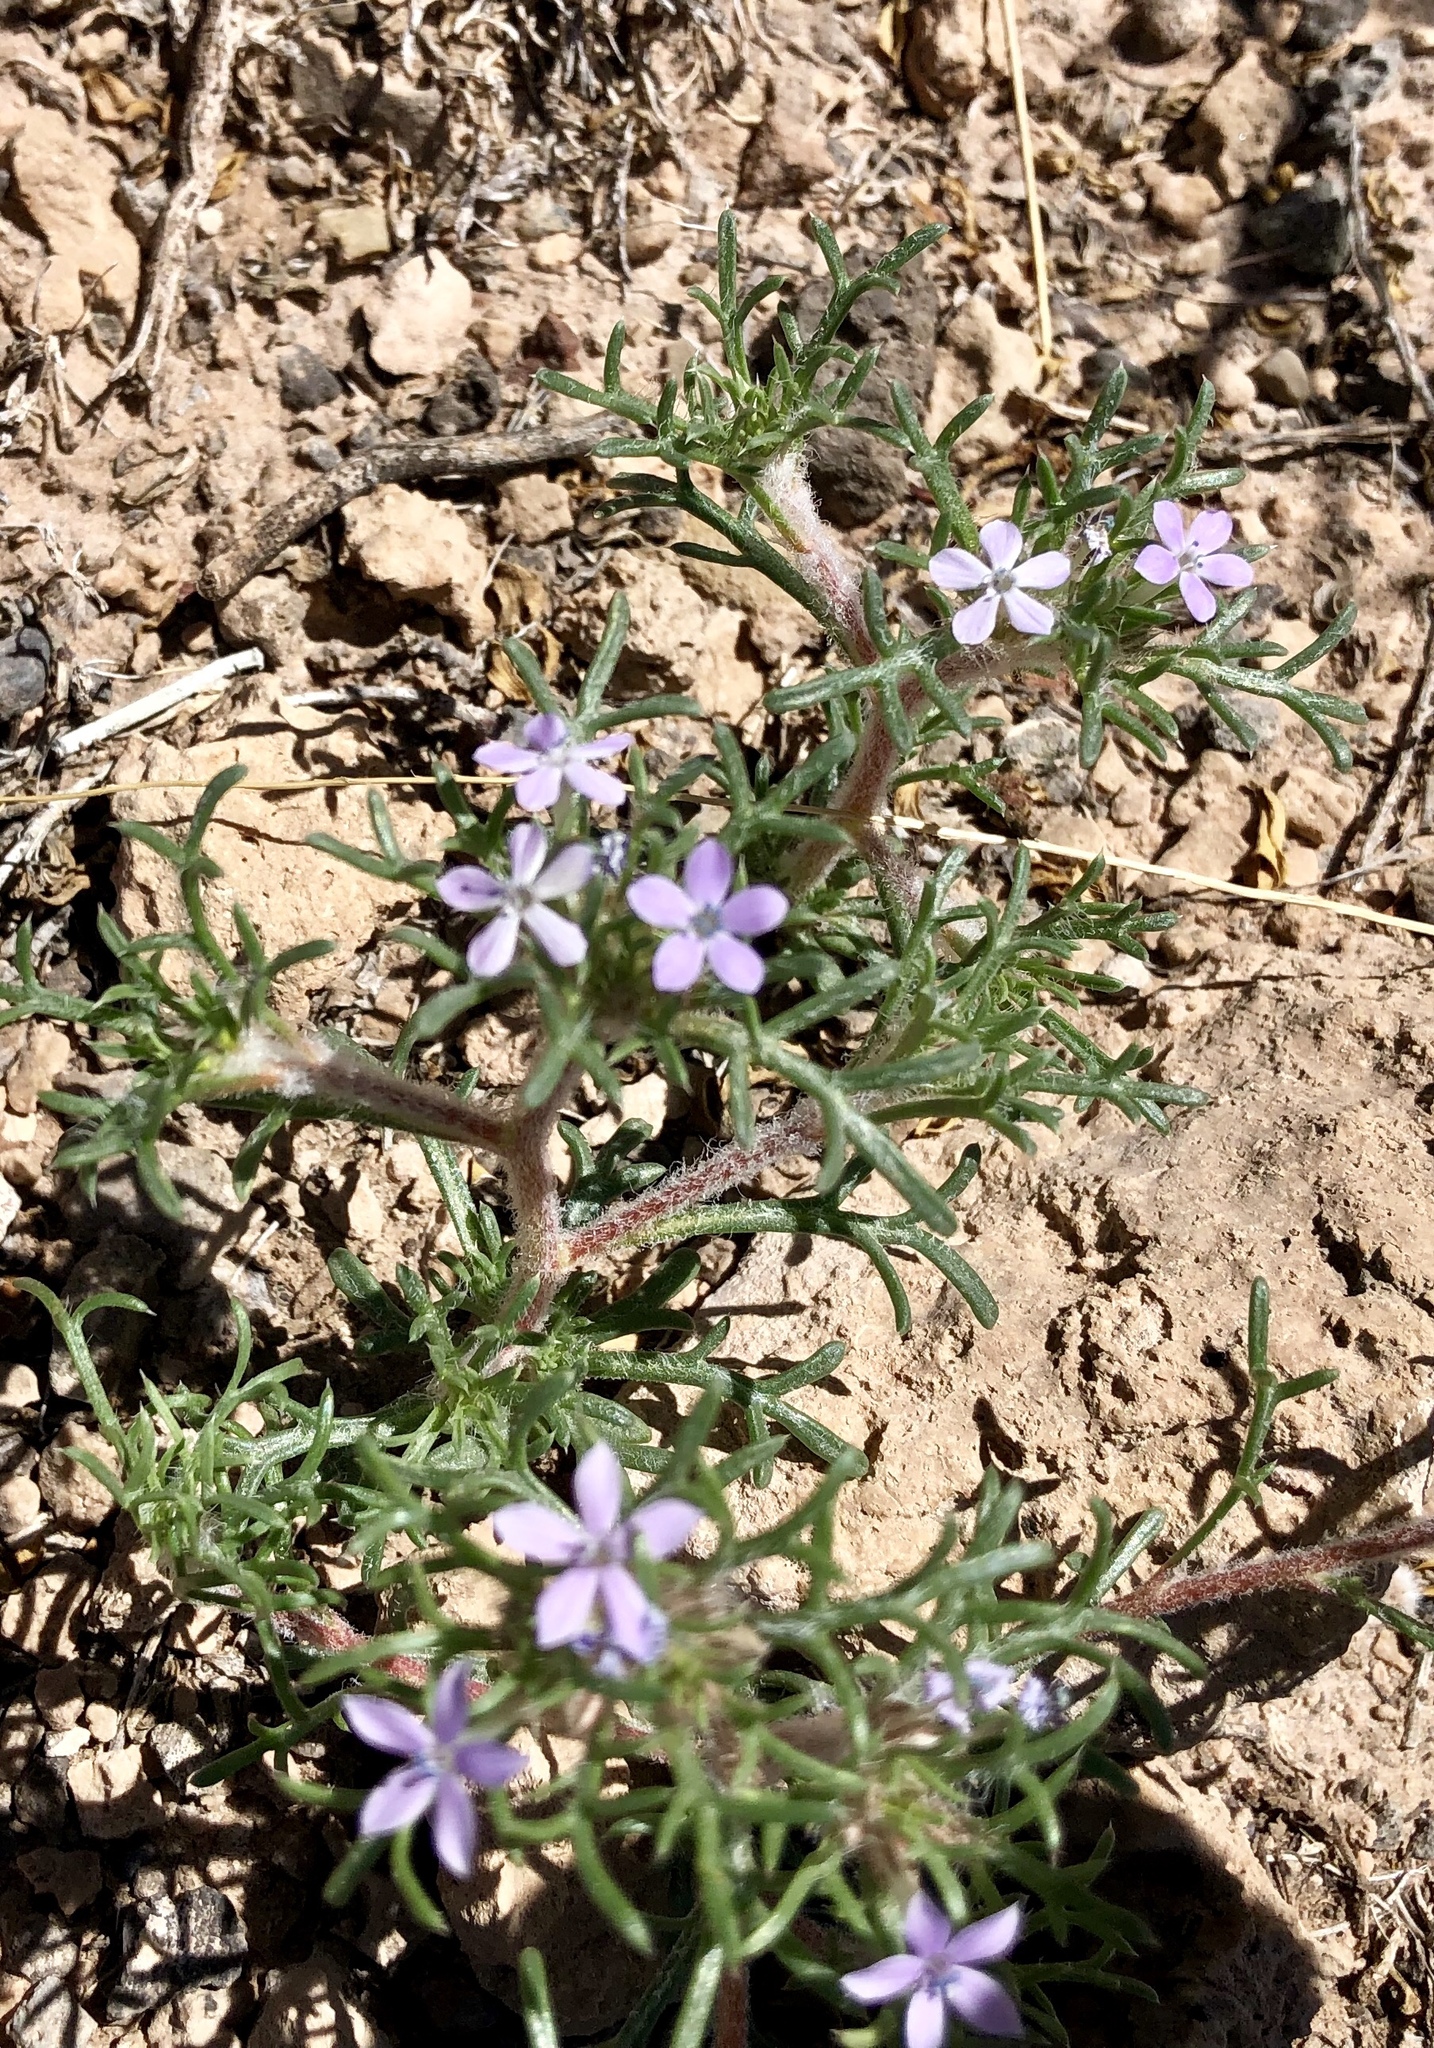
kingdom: Plantae
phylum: Tracheophyta
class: Magnoliopsida
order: Ericales
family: Polemoniaceae
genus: Ipomopsis
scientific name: Ipomopsis pumila
